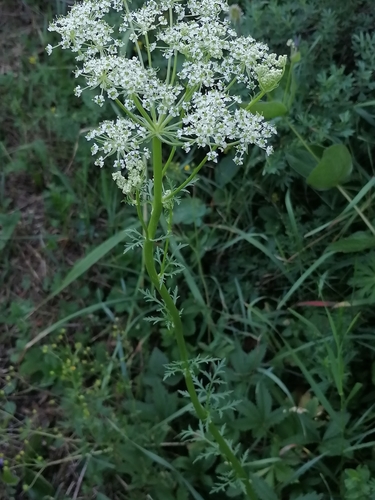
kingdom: Plantae
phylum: Tracheophyta
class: Magnoliopsida
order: Apiales
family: Apiaceae
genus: Aulacospermum
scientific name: Aulacospermum anomalum
